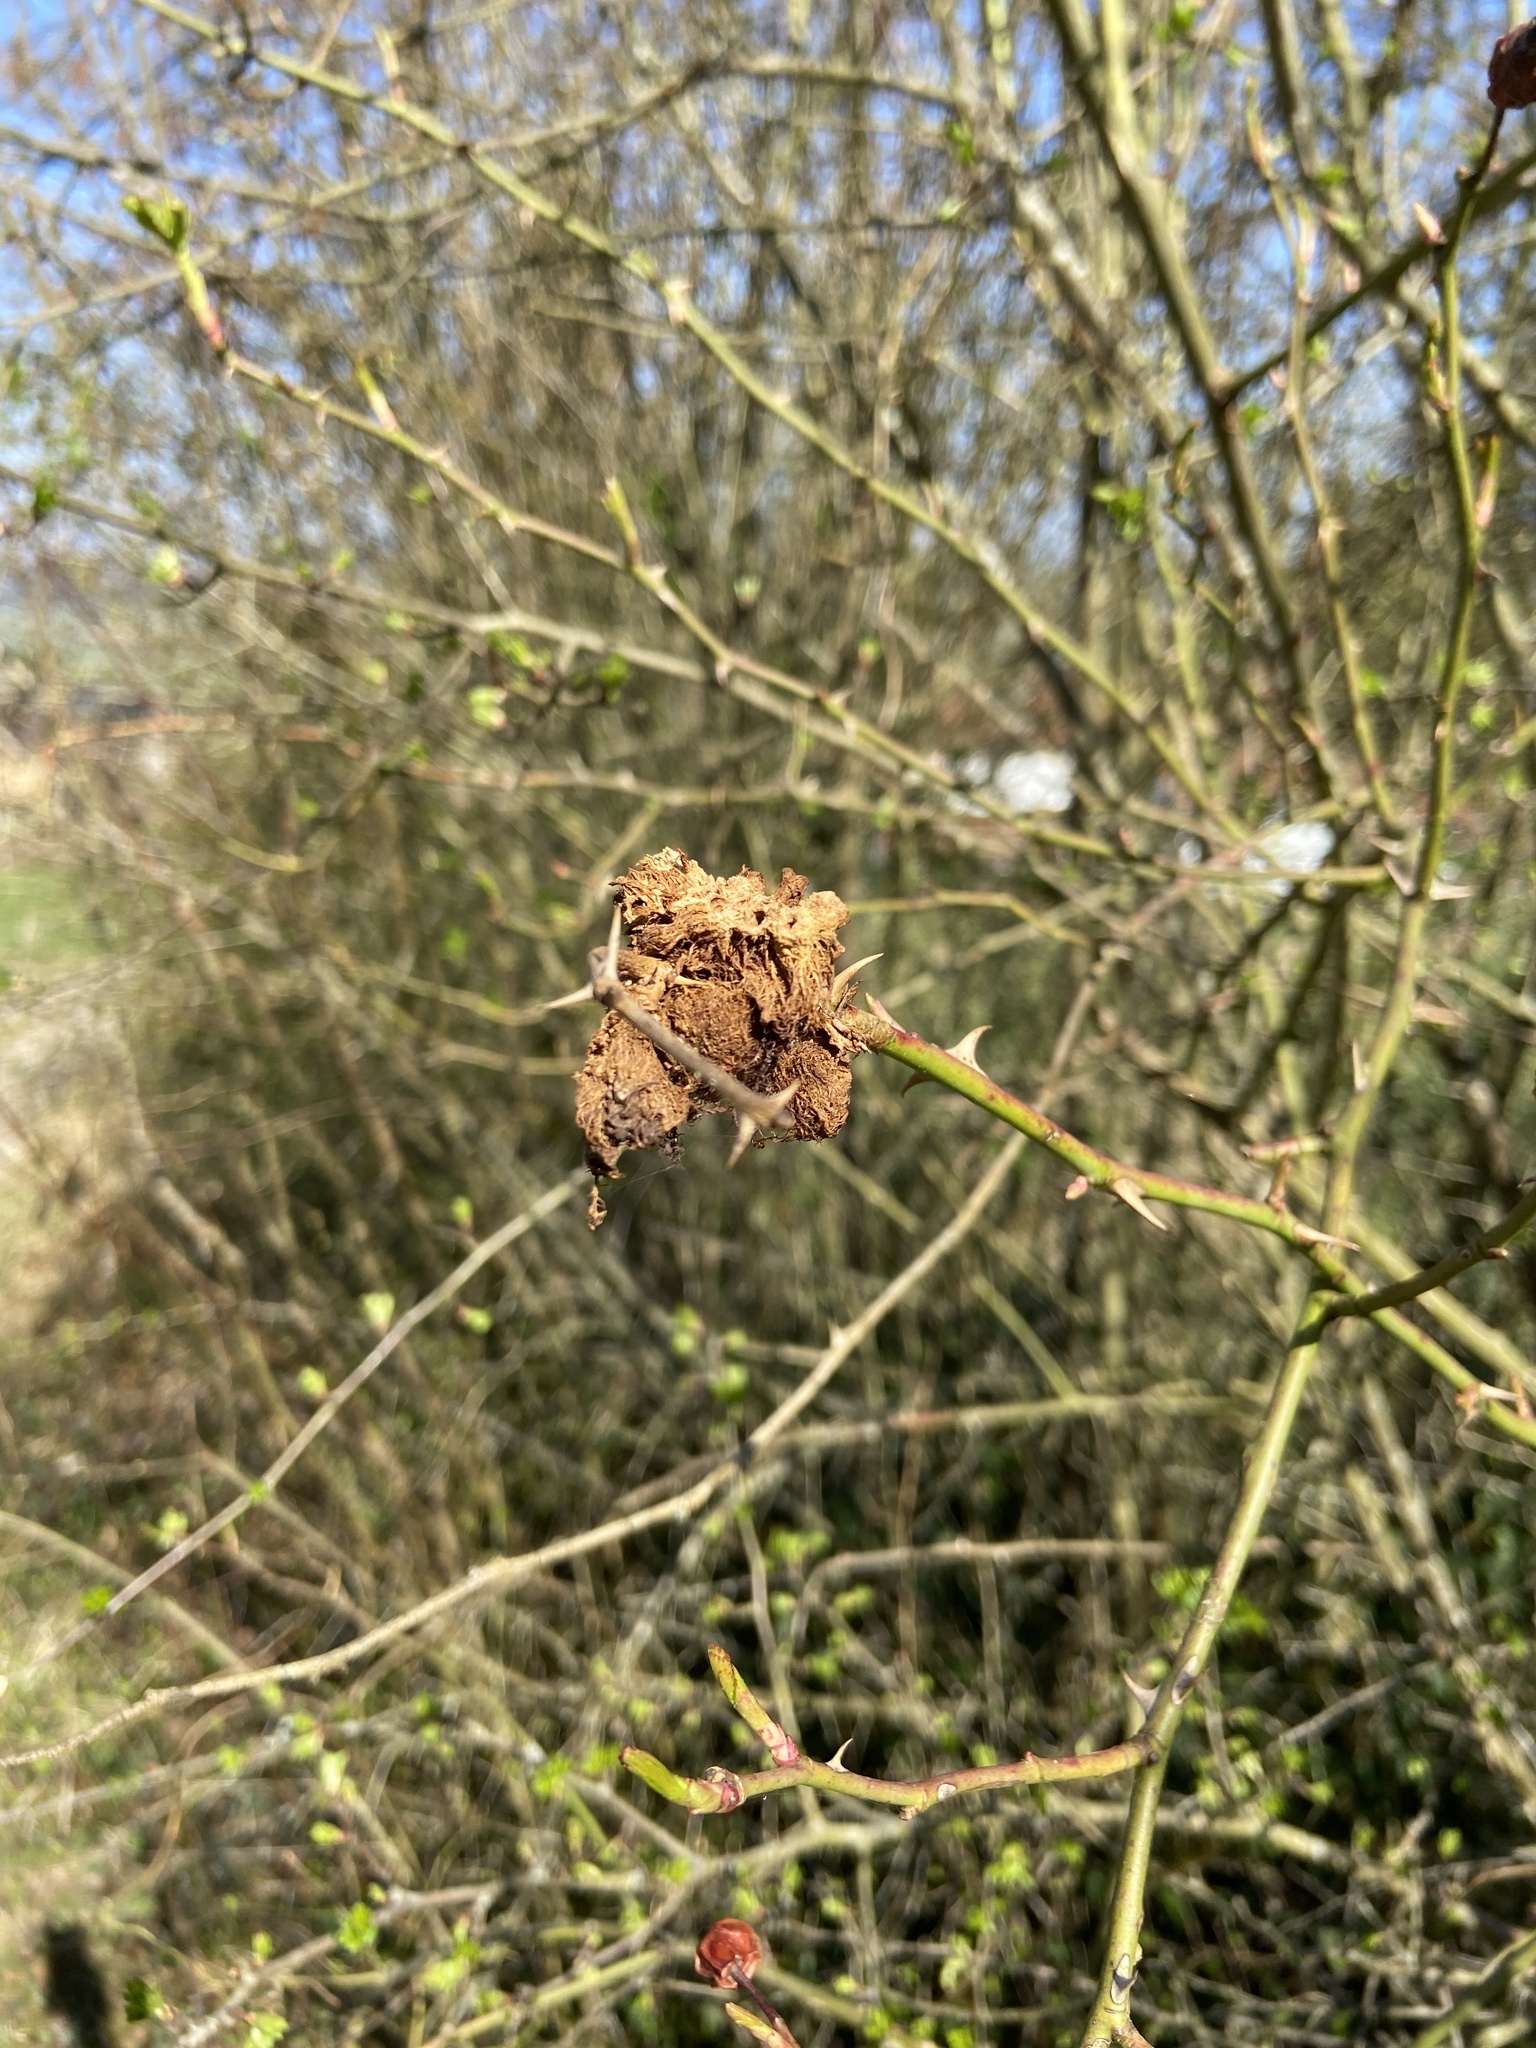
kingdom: Animalia
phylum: Arthropoda
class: Insecta
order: Hymenoptera
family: Cynipidae
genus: Diplolepis
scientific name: Diplolepis rosae
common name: Bedeguar gall
